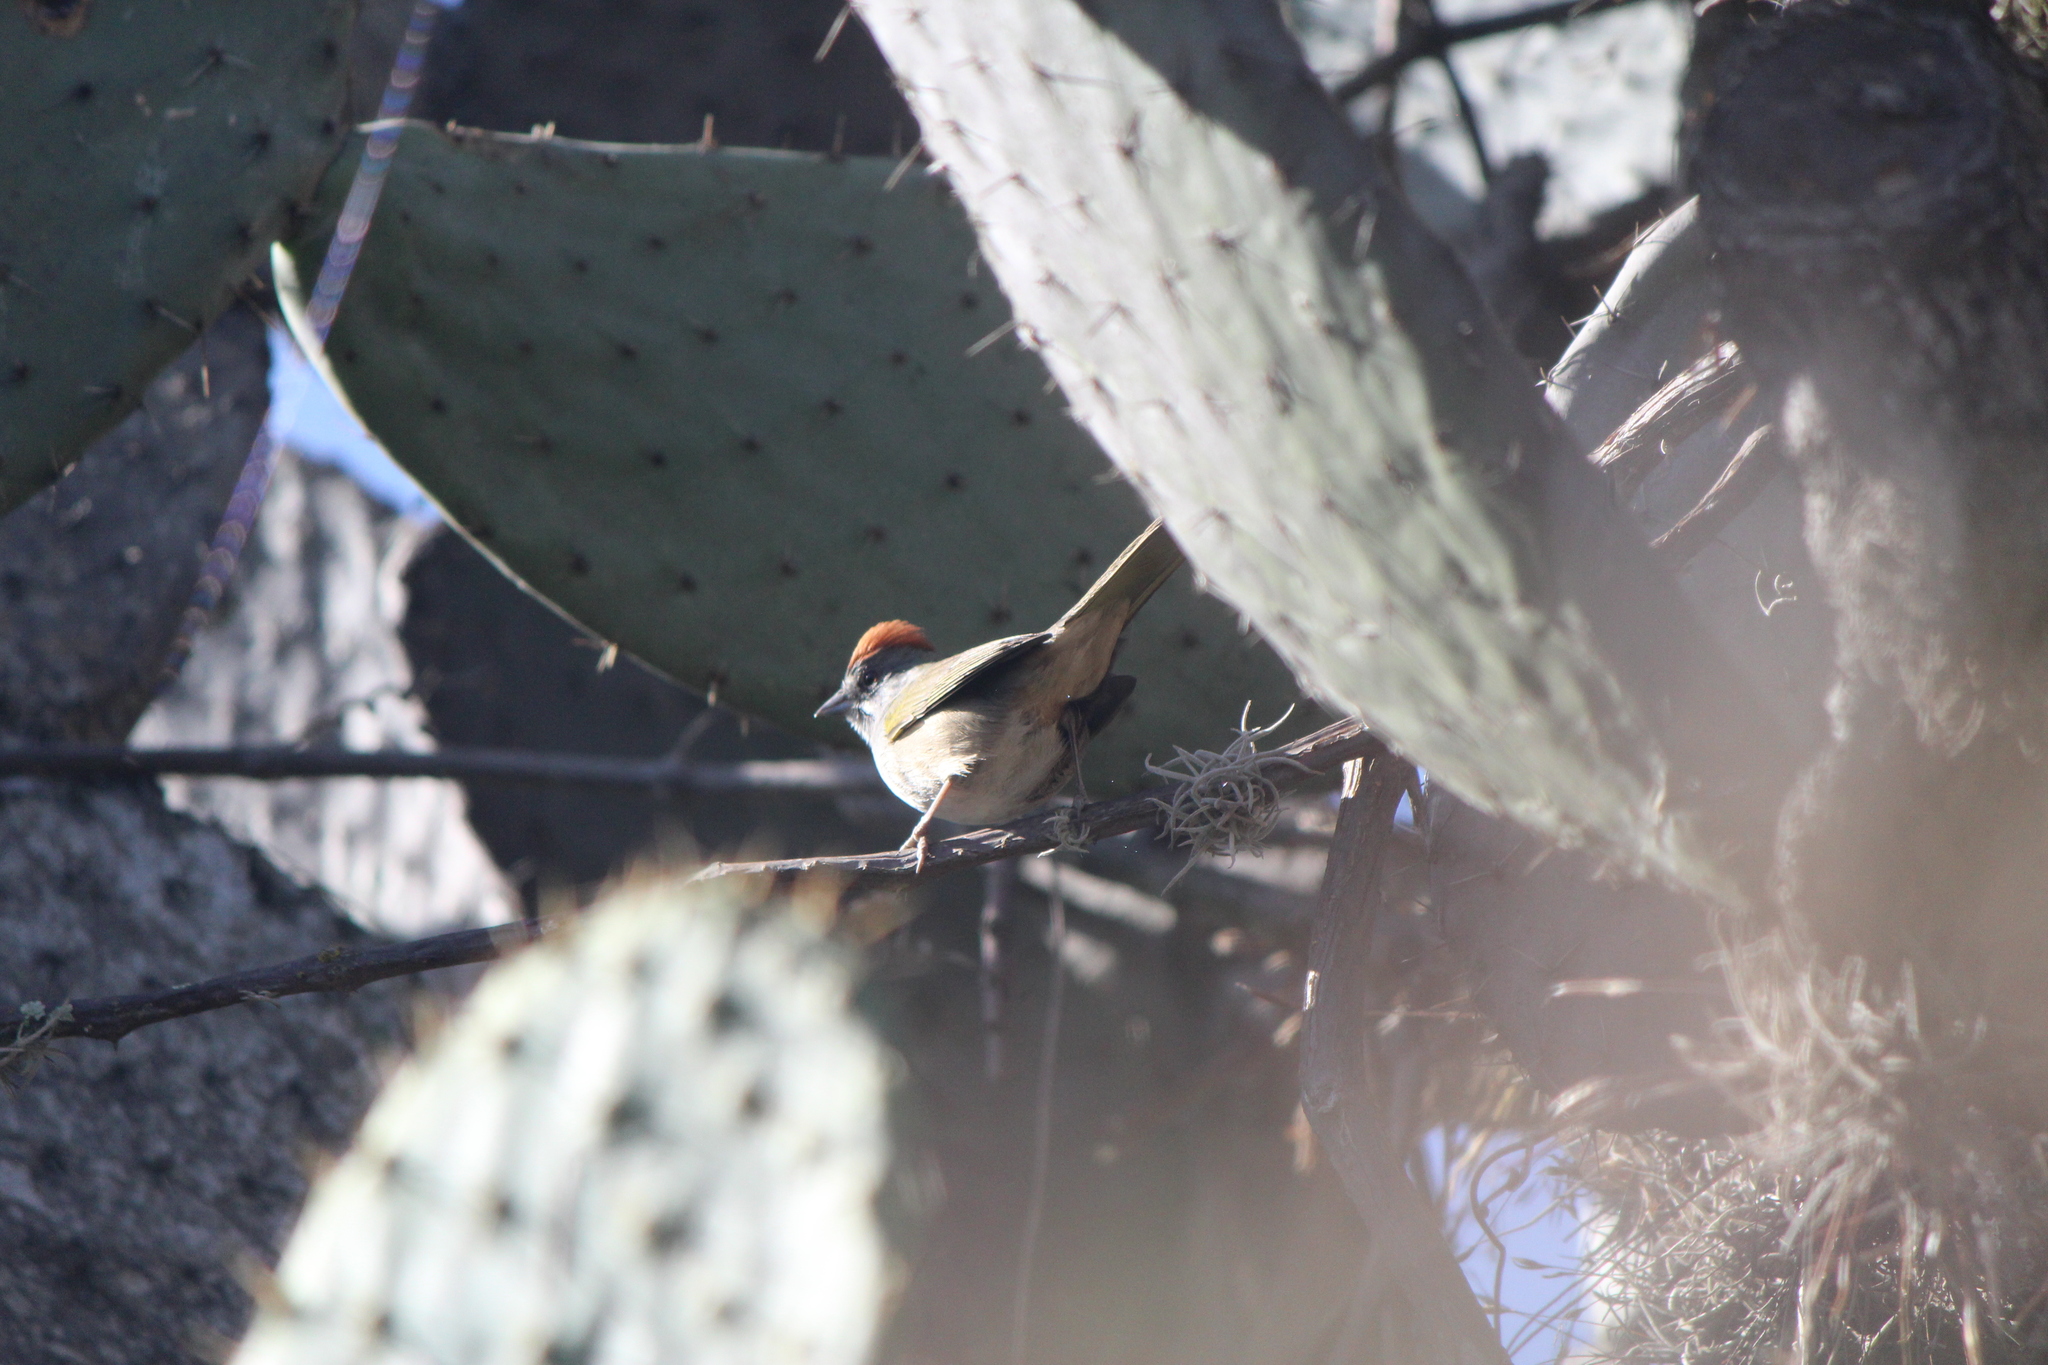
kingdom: Animalia
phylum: Chordata
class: Aves
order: Passeriformes
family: Passerellidae
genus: Pipilo
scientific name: Pipilo chlorurus
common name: Green-tailed towhee
